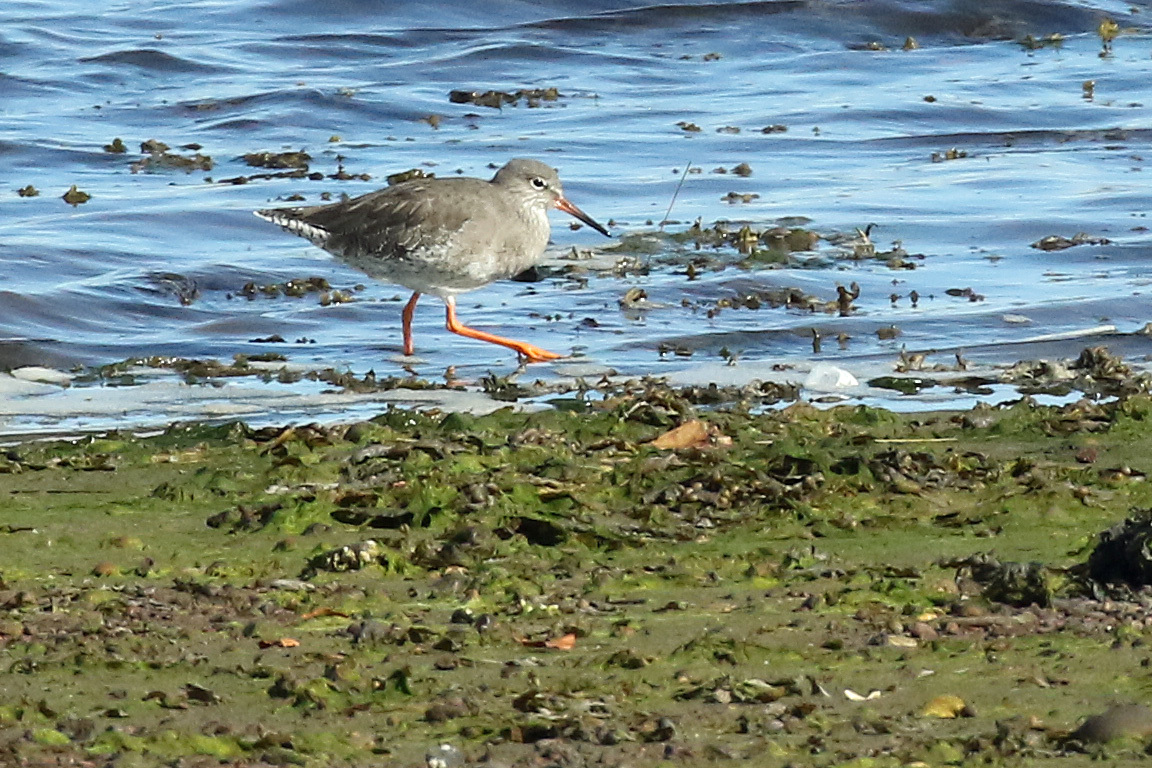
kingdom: Animalia
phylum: Chordata
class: Aves
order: Charadriiformes
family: Scolopacidae
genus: Tringa
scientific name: Tringa totanus
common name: Common redshank
